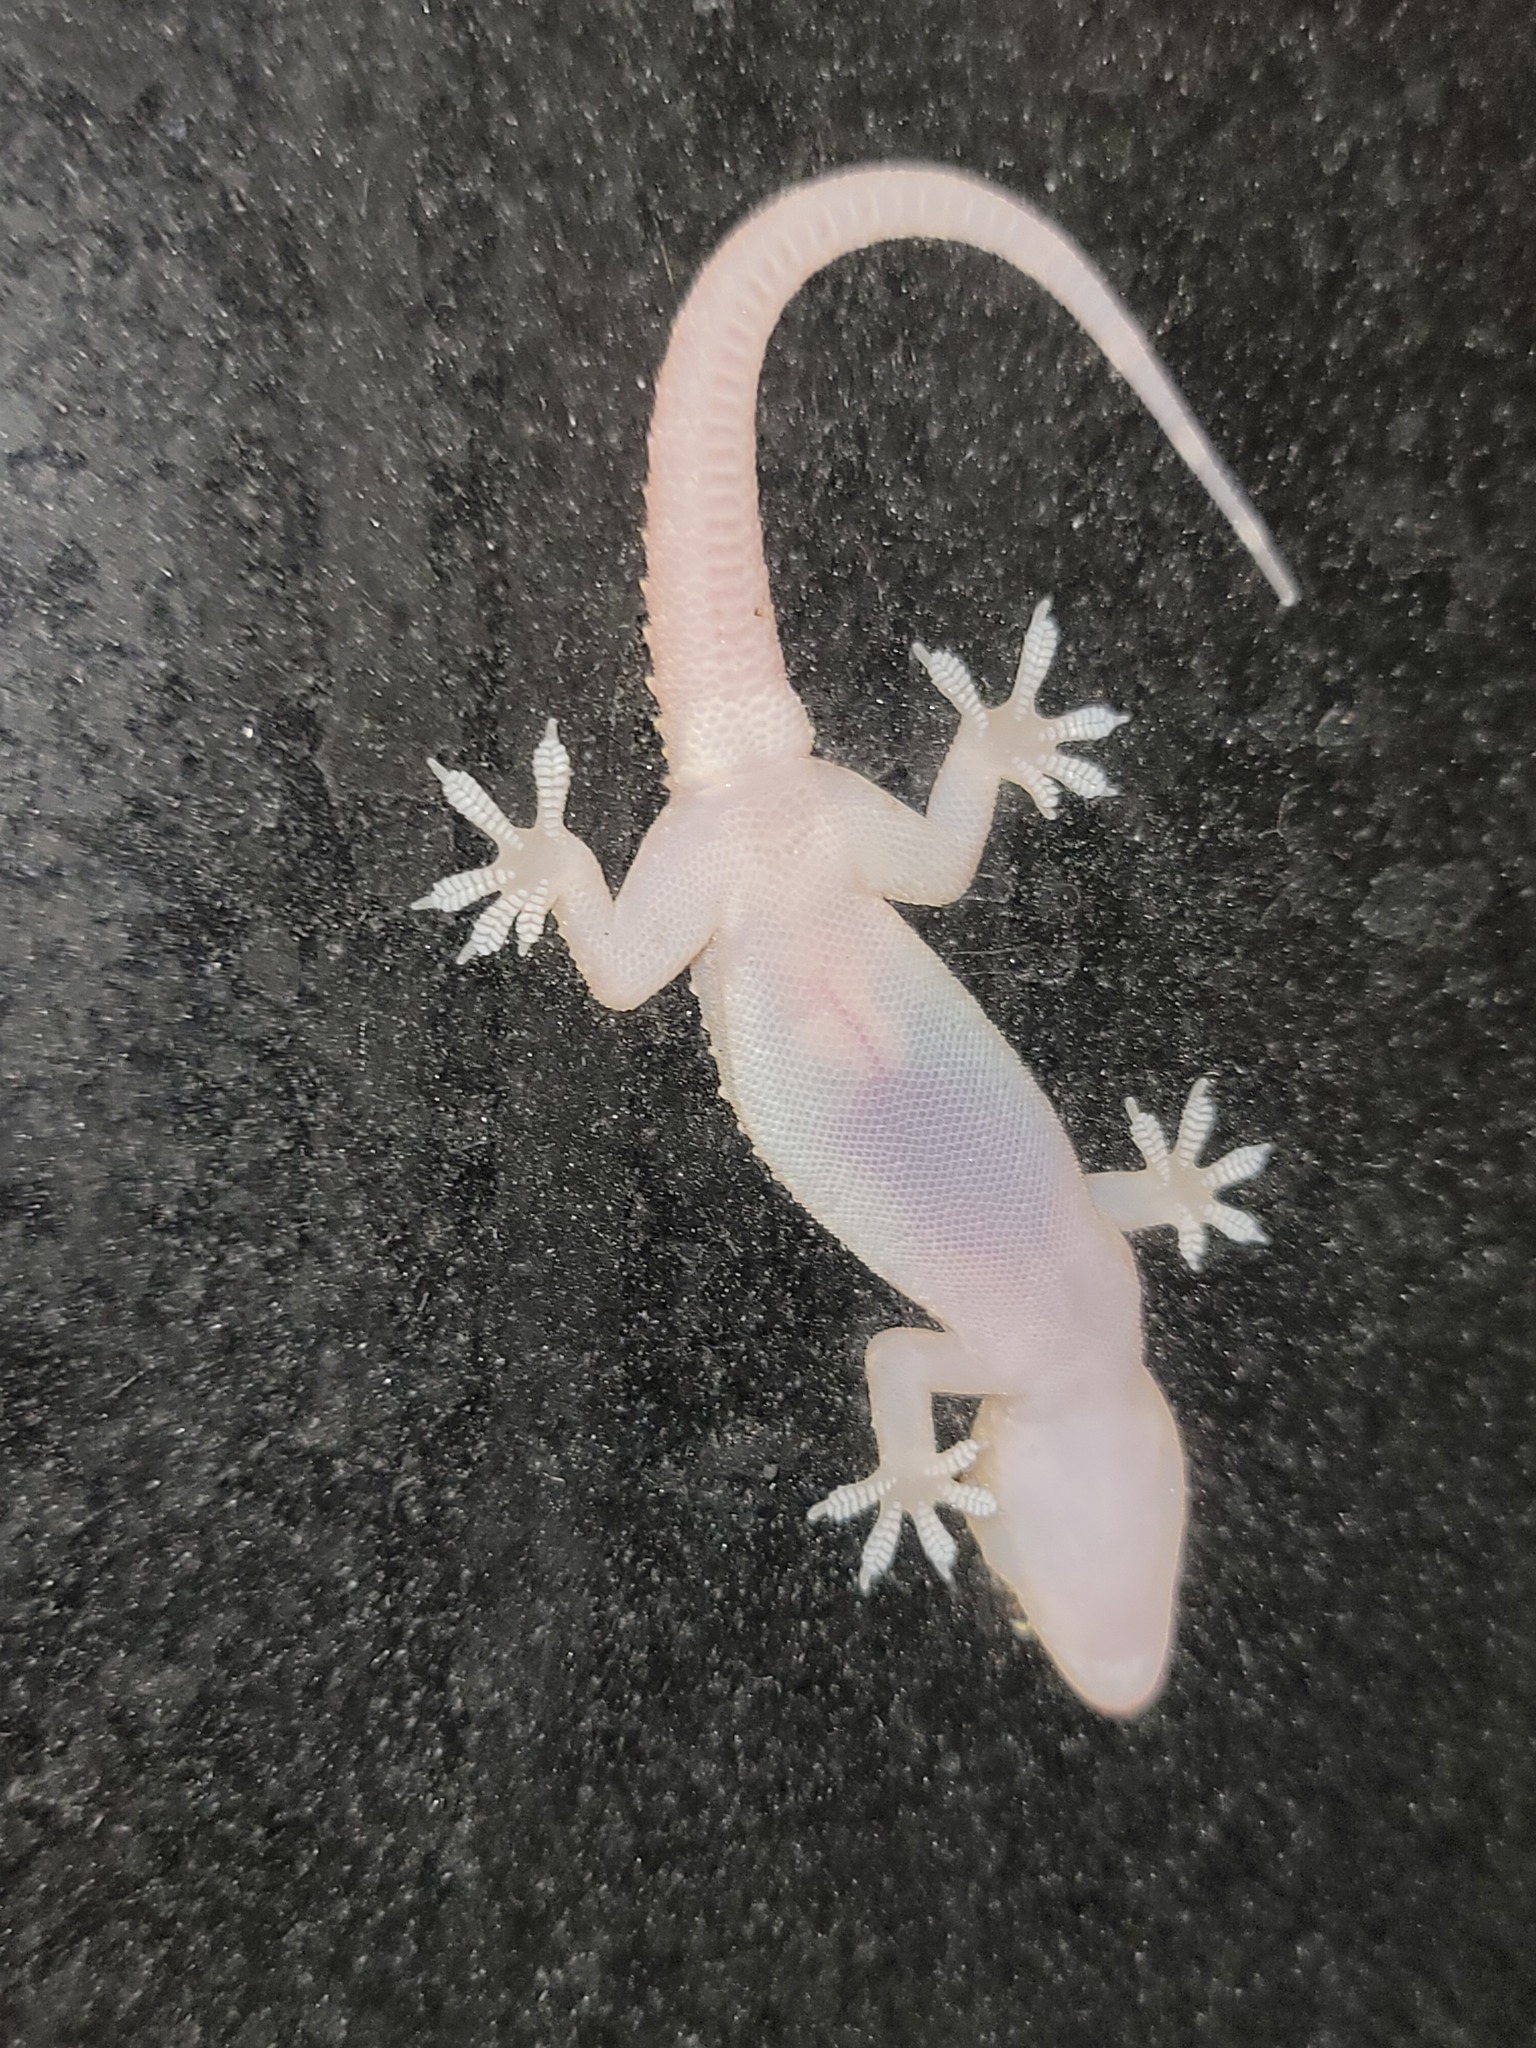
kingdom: Animalia
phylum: Chordata
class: Squamata
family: Gekkonidae
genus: Hemidactylus
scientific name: Hemidactylus turcicus
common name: Turkish gecko
